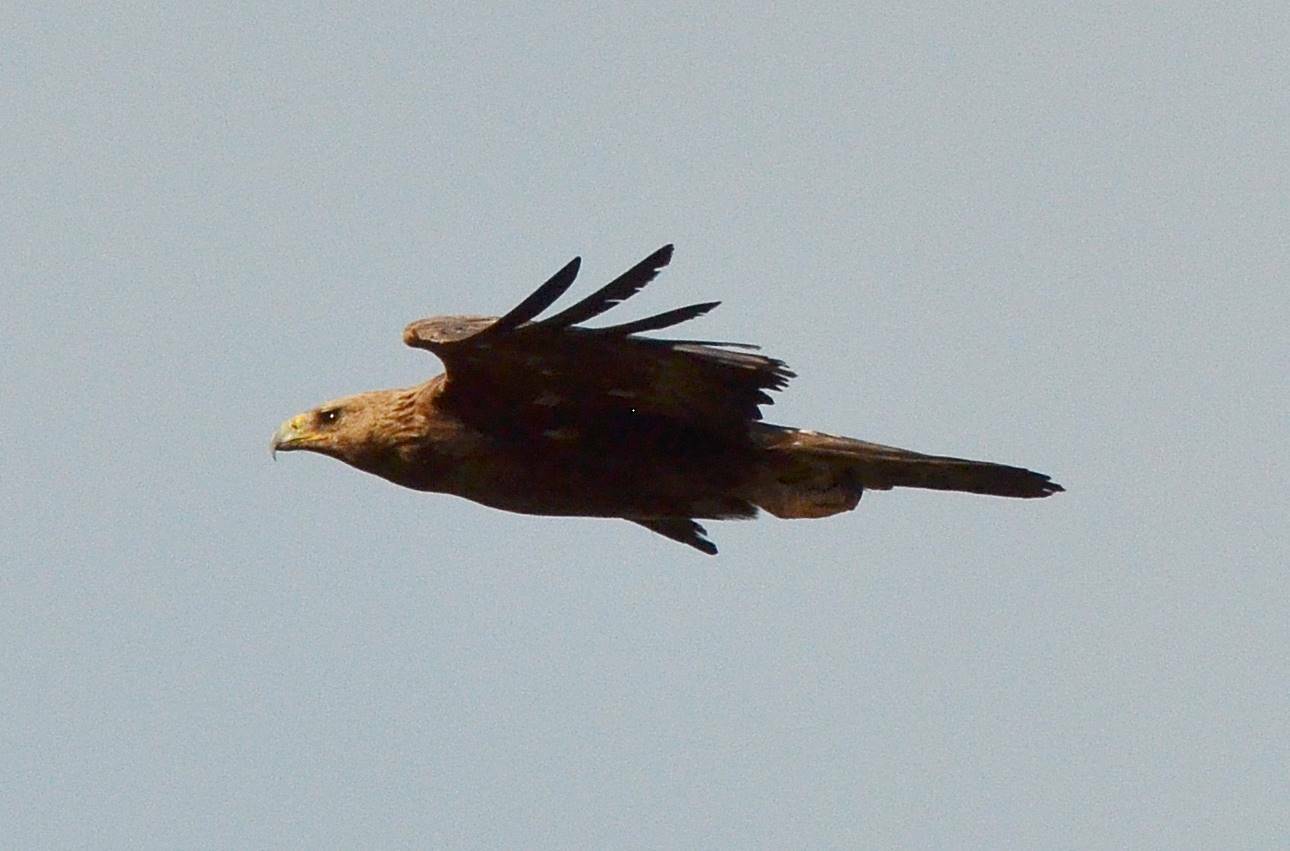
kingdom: Animalia
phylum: Chordata
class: Aves
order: Accipitriformes
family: Accipitridae
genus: Aquila
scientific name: Aquila rapax
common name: Tawny eagle
